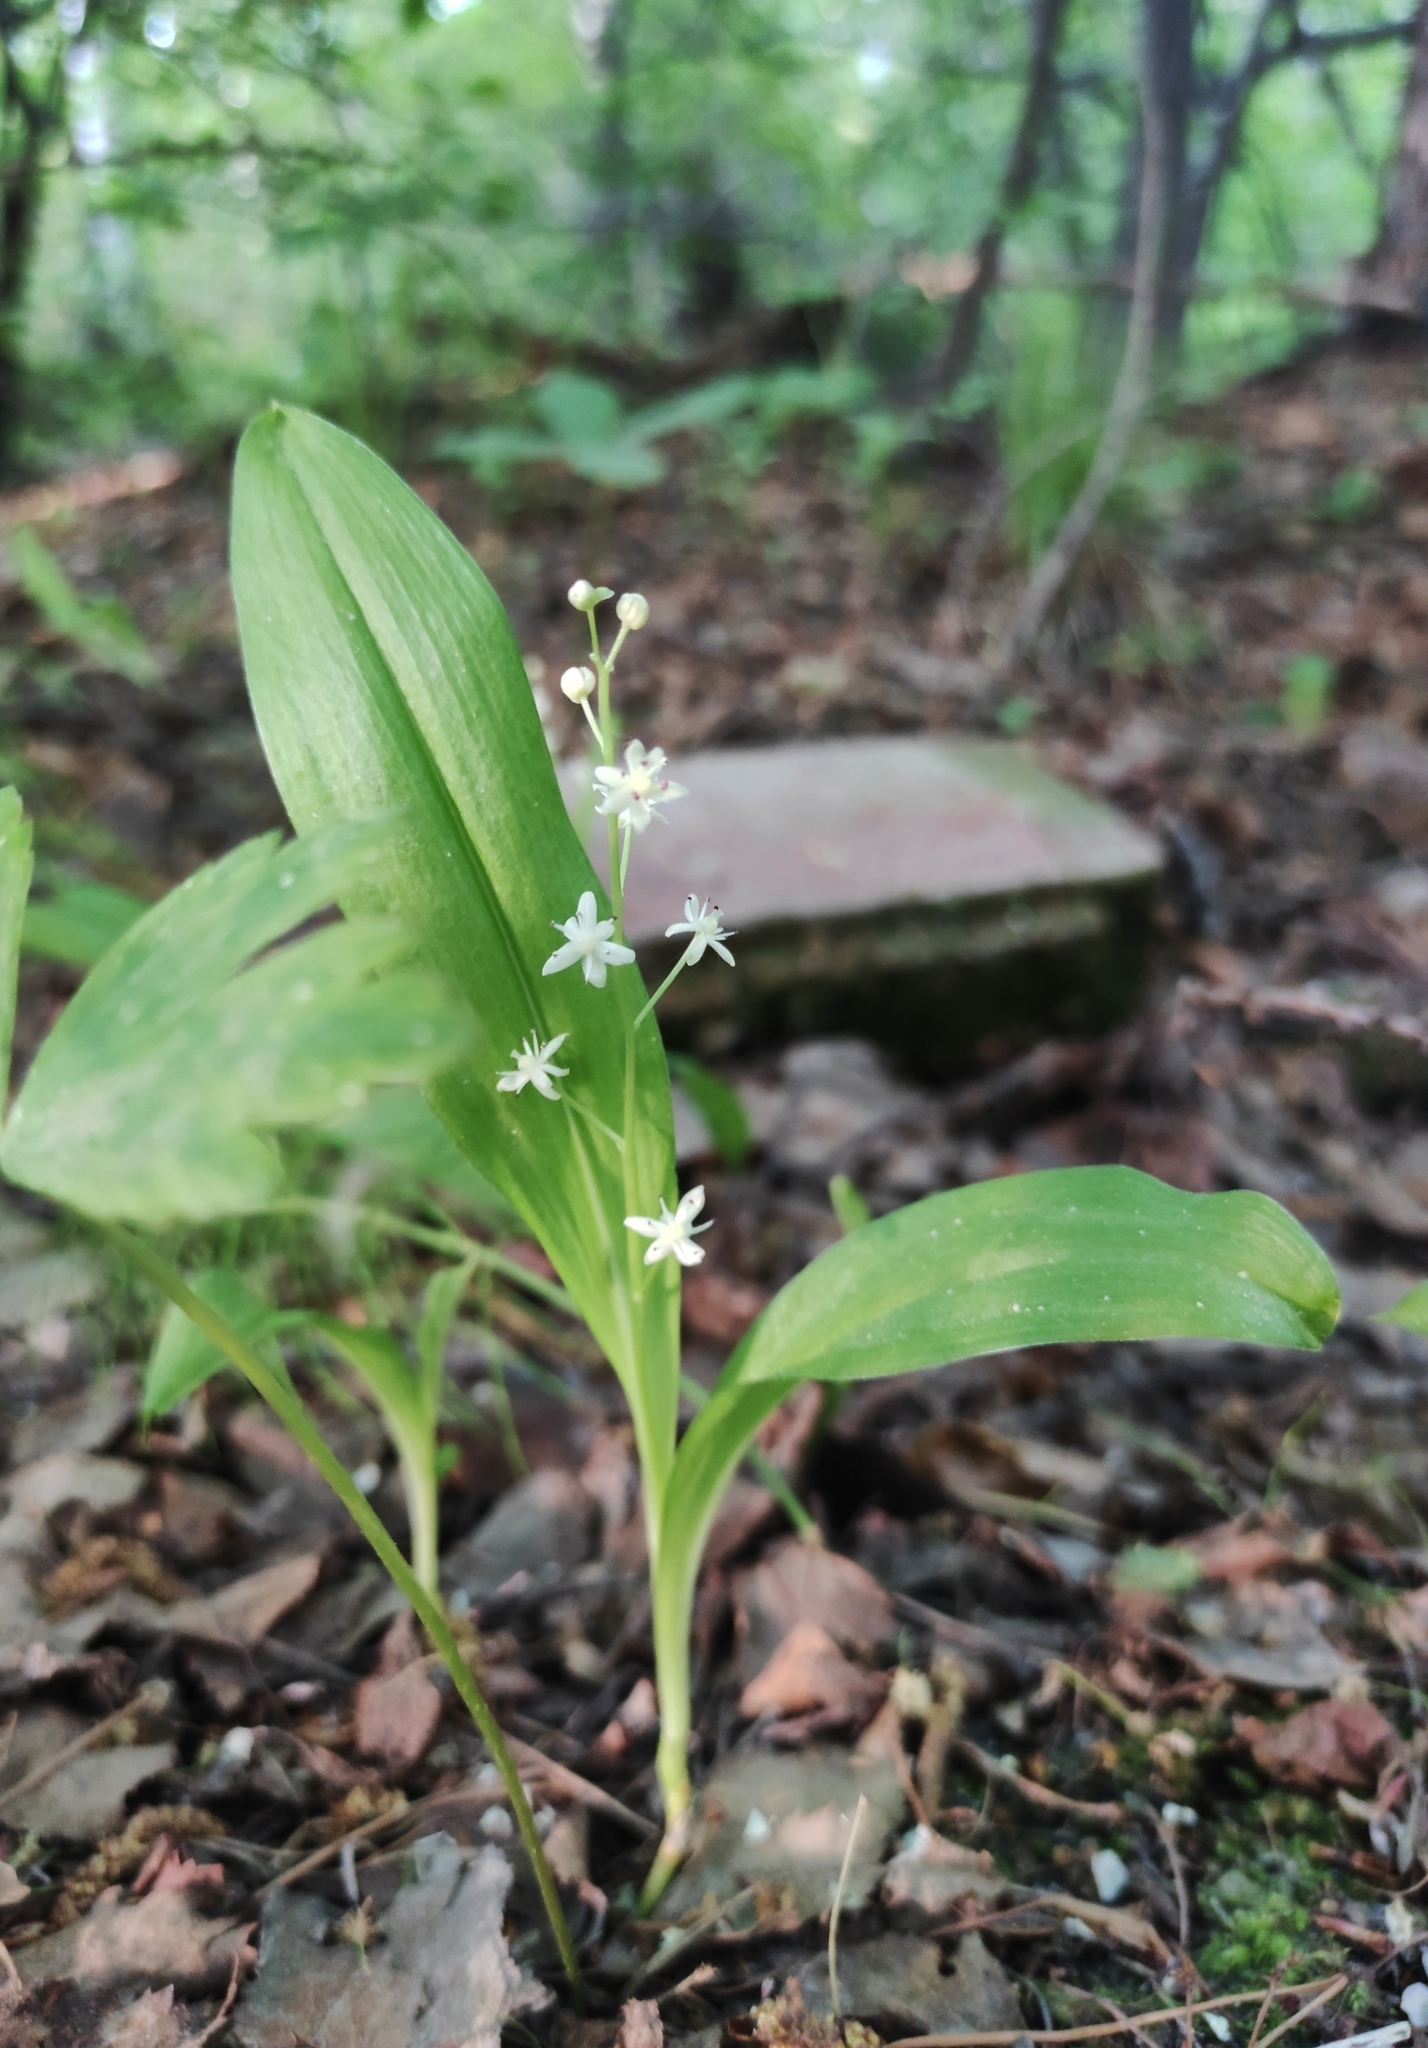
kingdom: Plantae
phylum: Tracheophyta
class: Liliopsida
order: Asparagales
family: Asparagaceae
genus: Maianthemum
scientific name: Maianthemum trifolium
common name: Swamp false solomon's seal
